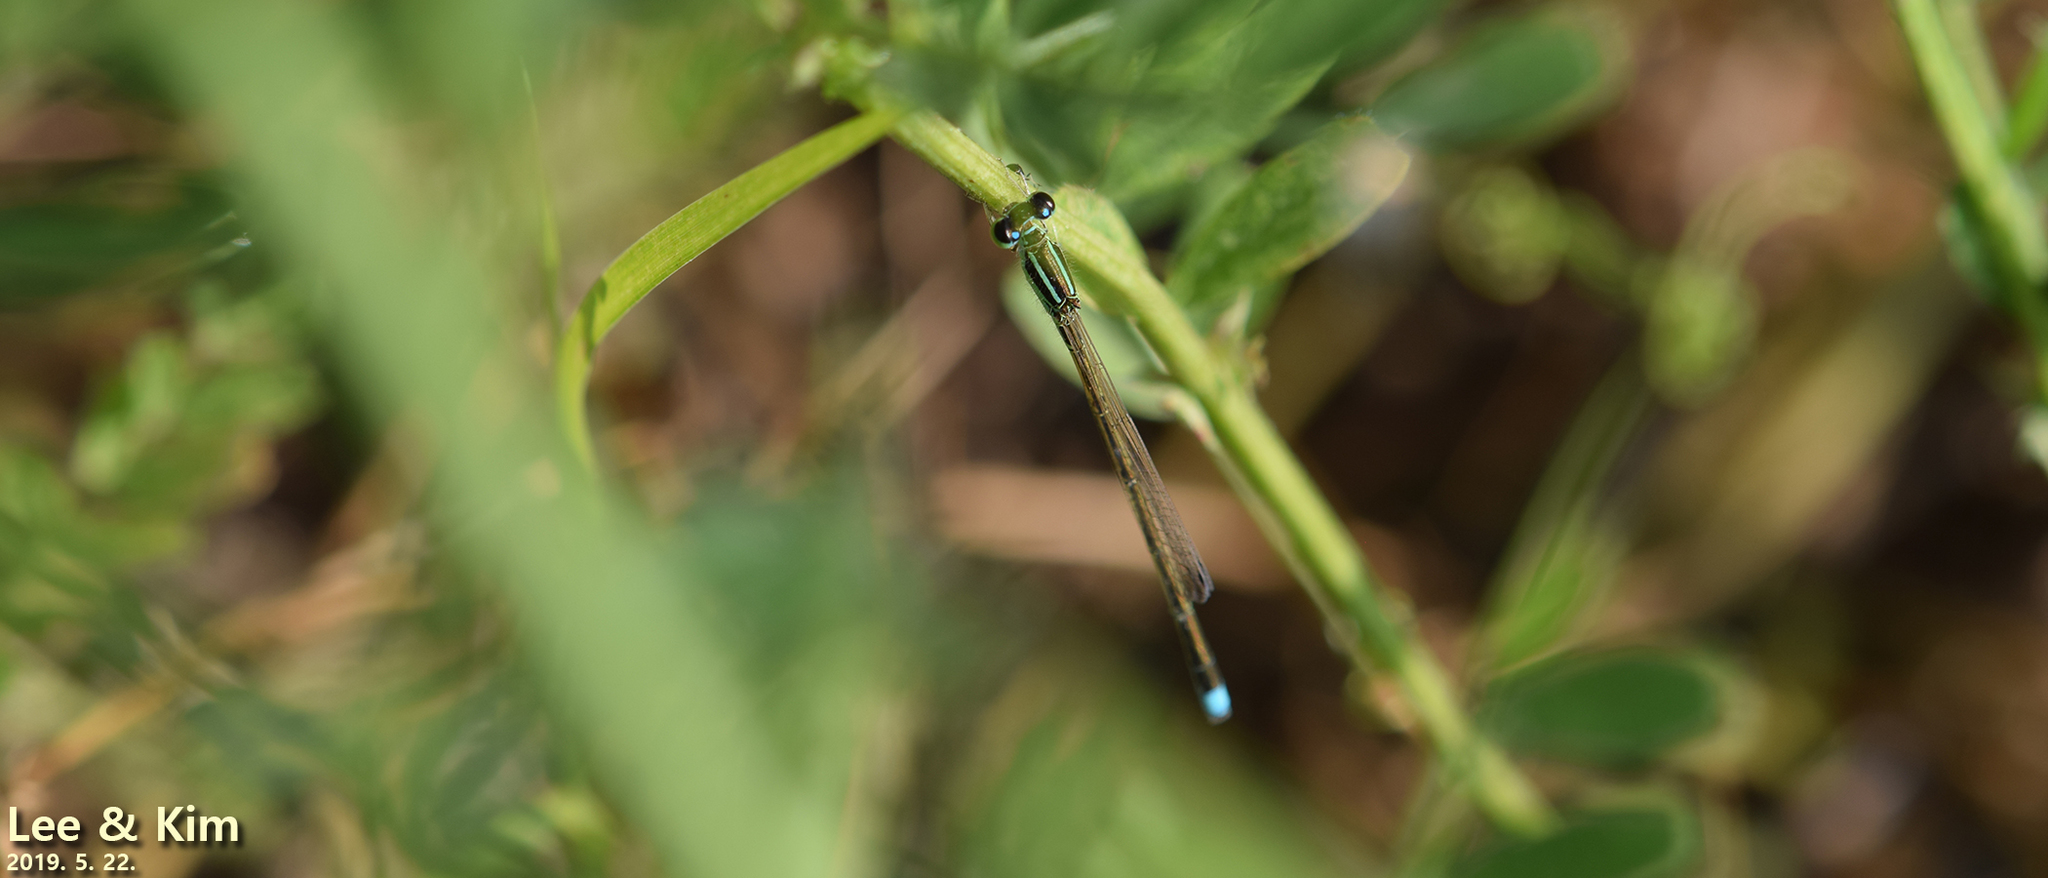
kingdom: Animalia
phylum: Arthropoda
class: Insecta
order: Odonata
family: Coenagrionidae
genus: Ischnura
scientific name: Ischnura asiatica
